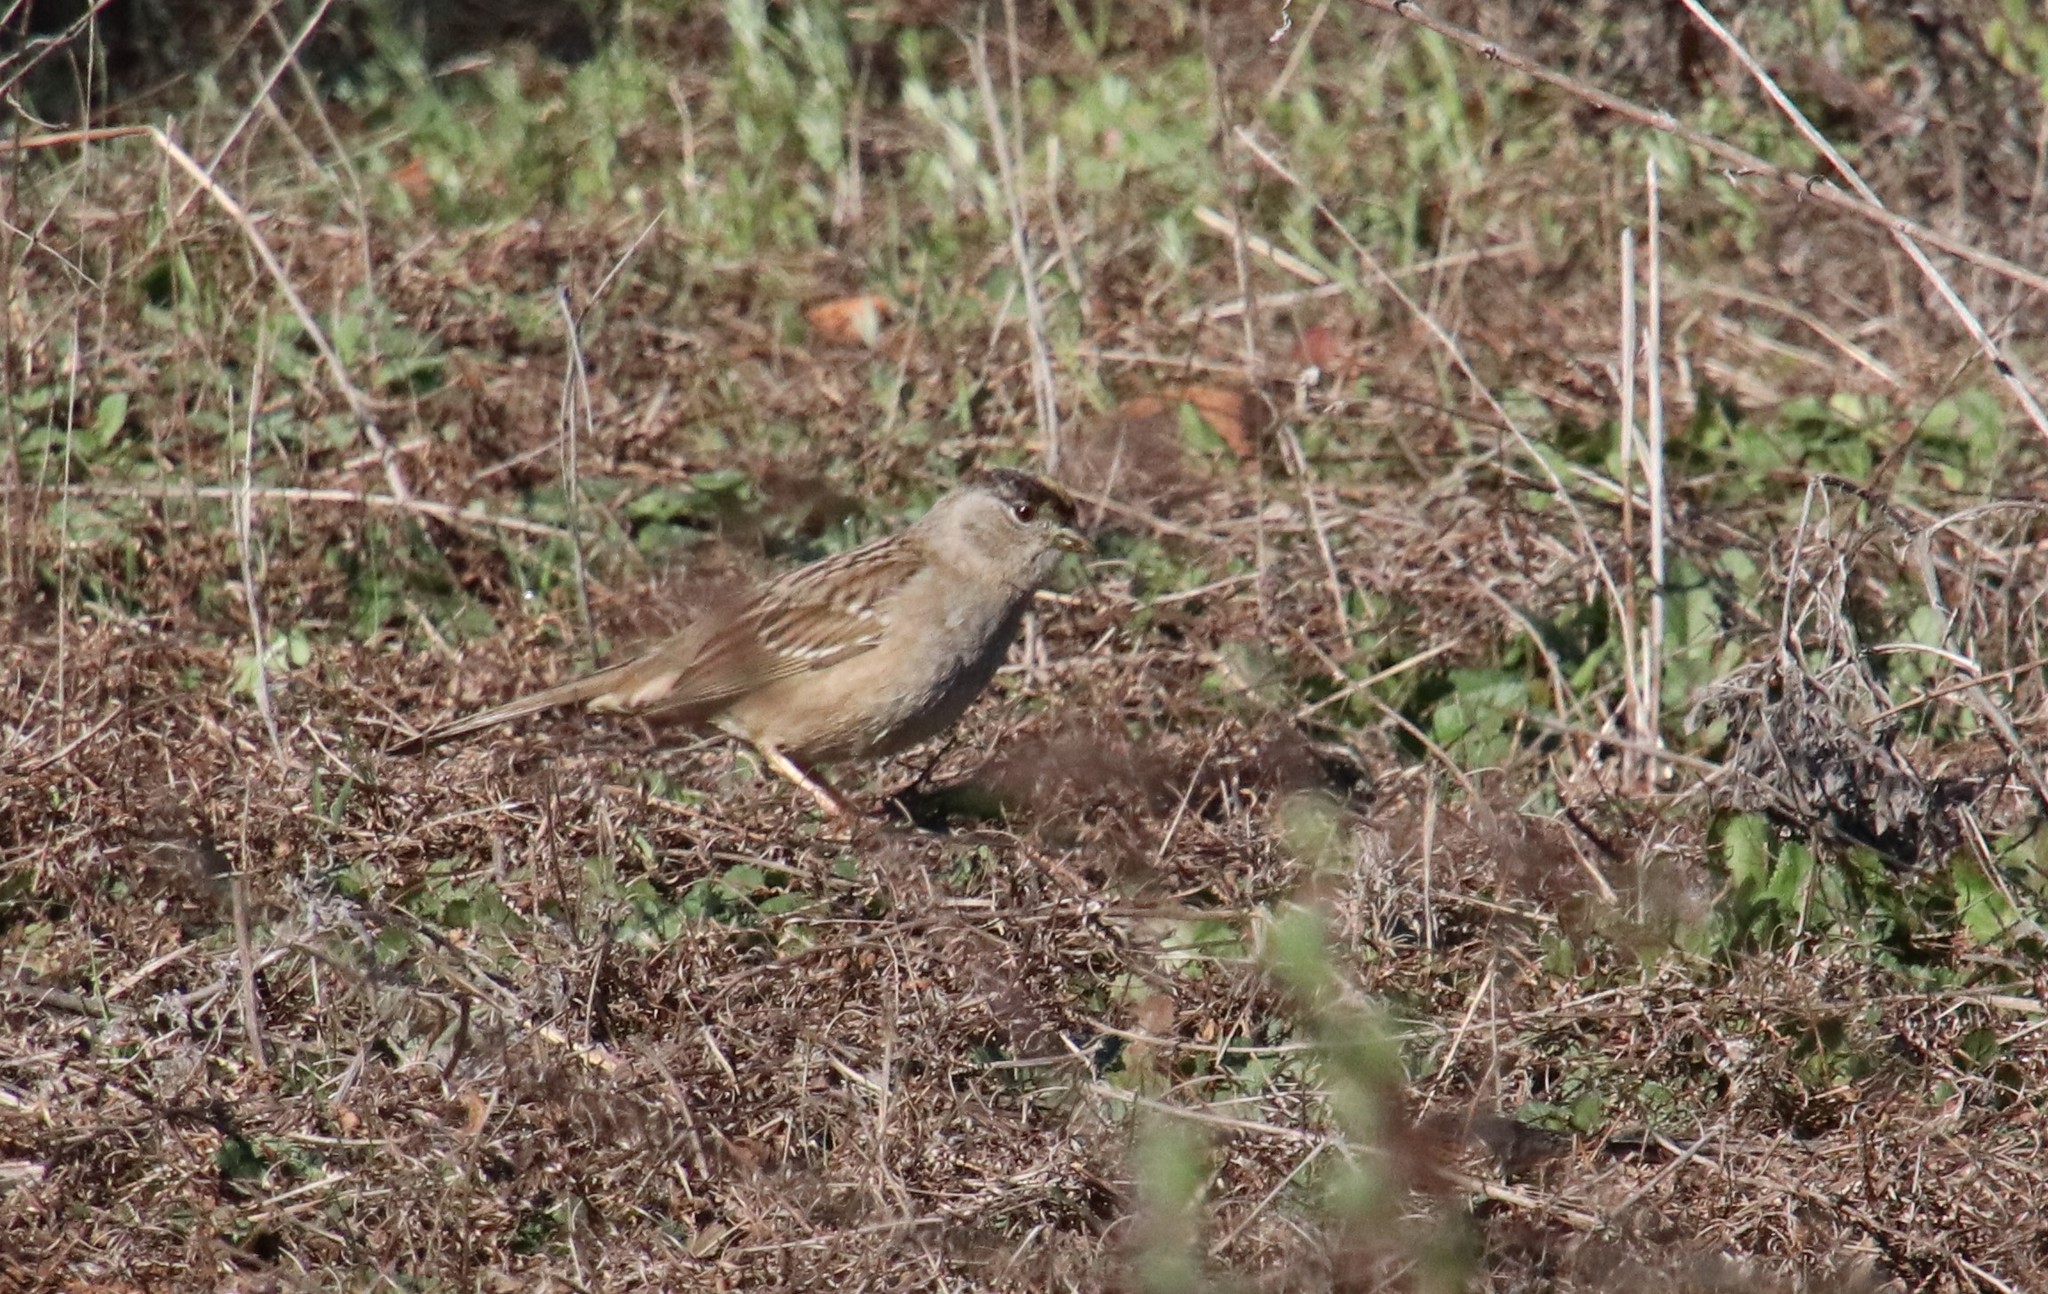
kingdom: Animalia
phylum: Chordata
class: Aves
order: Passeriformes
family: Passerellidae
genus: Zonotrichia
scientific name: Zonotrichia atricapilla
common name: Golden-crowned sparrow
